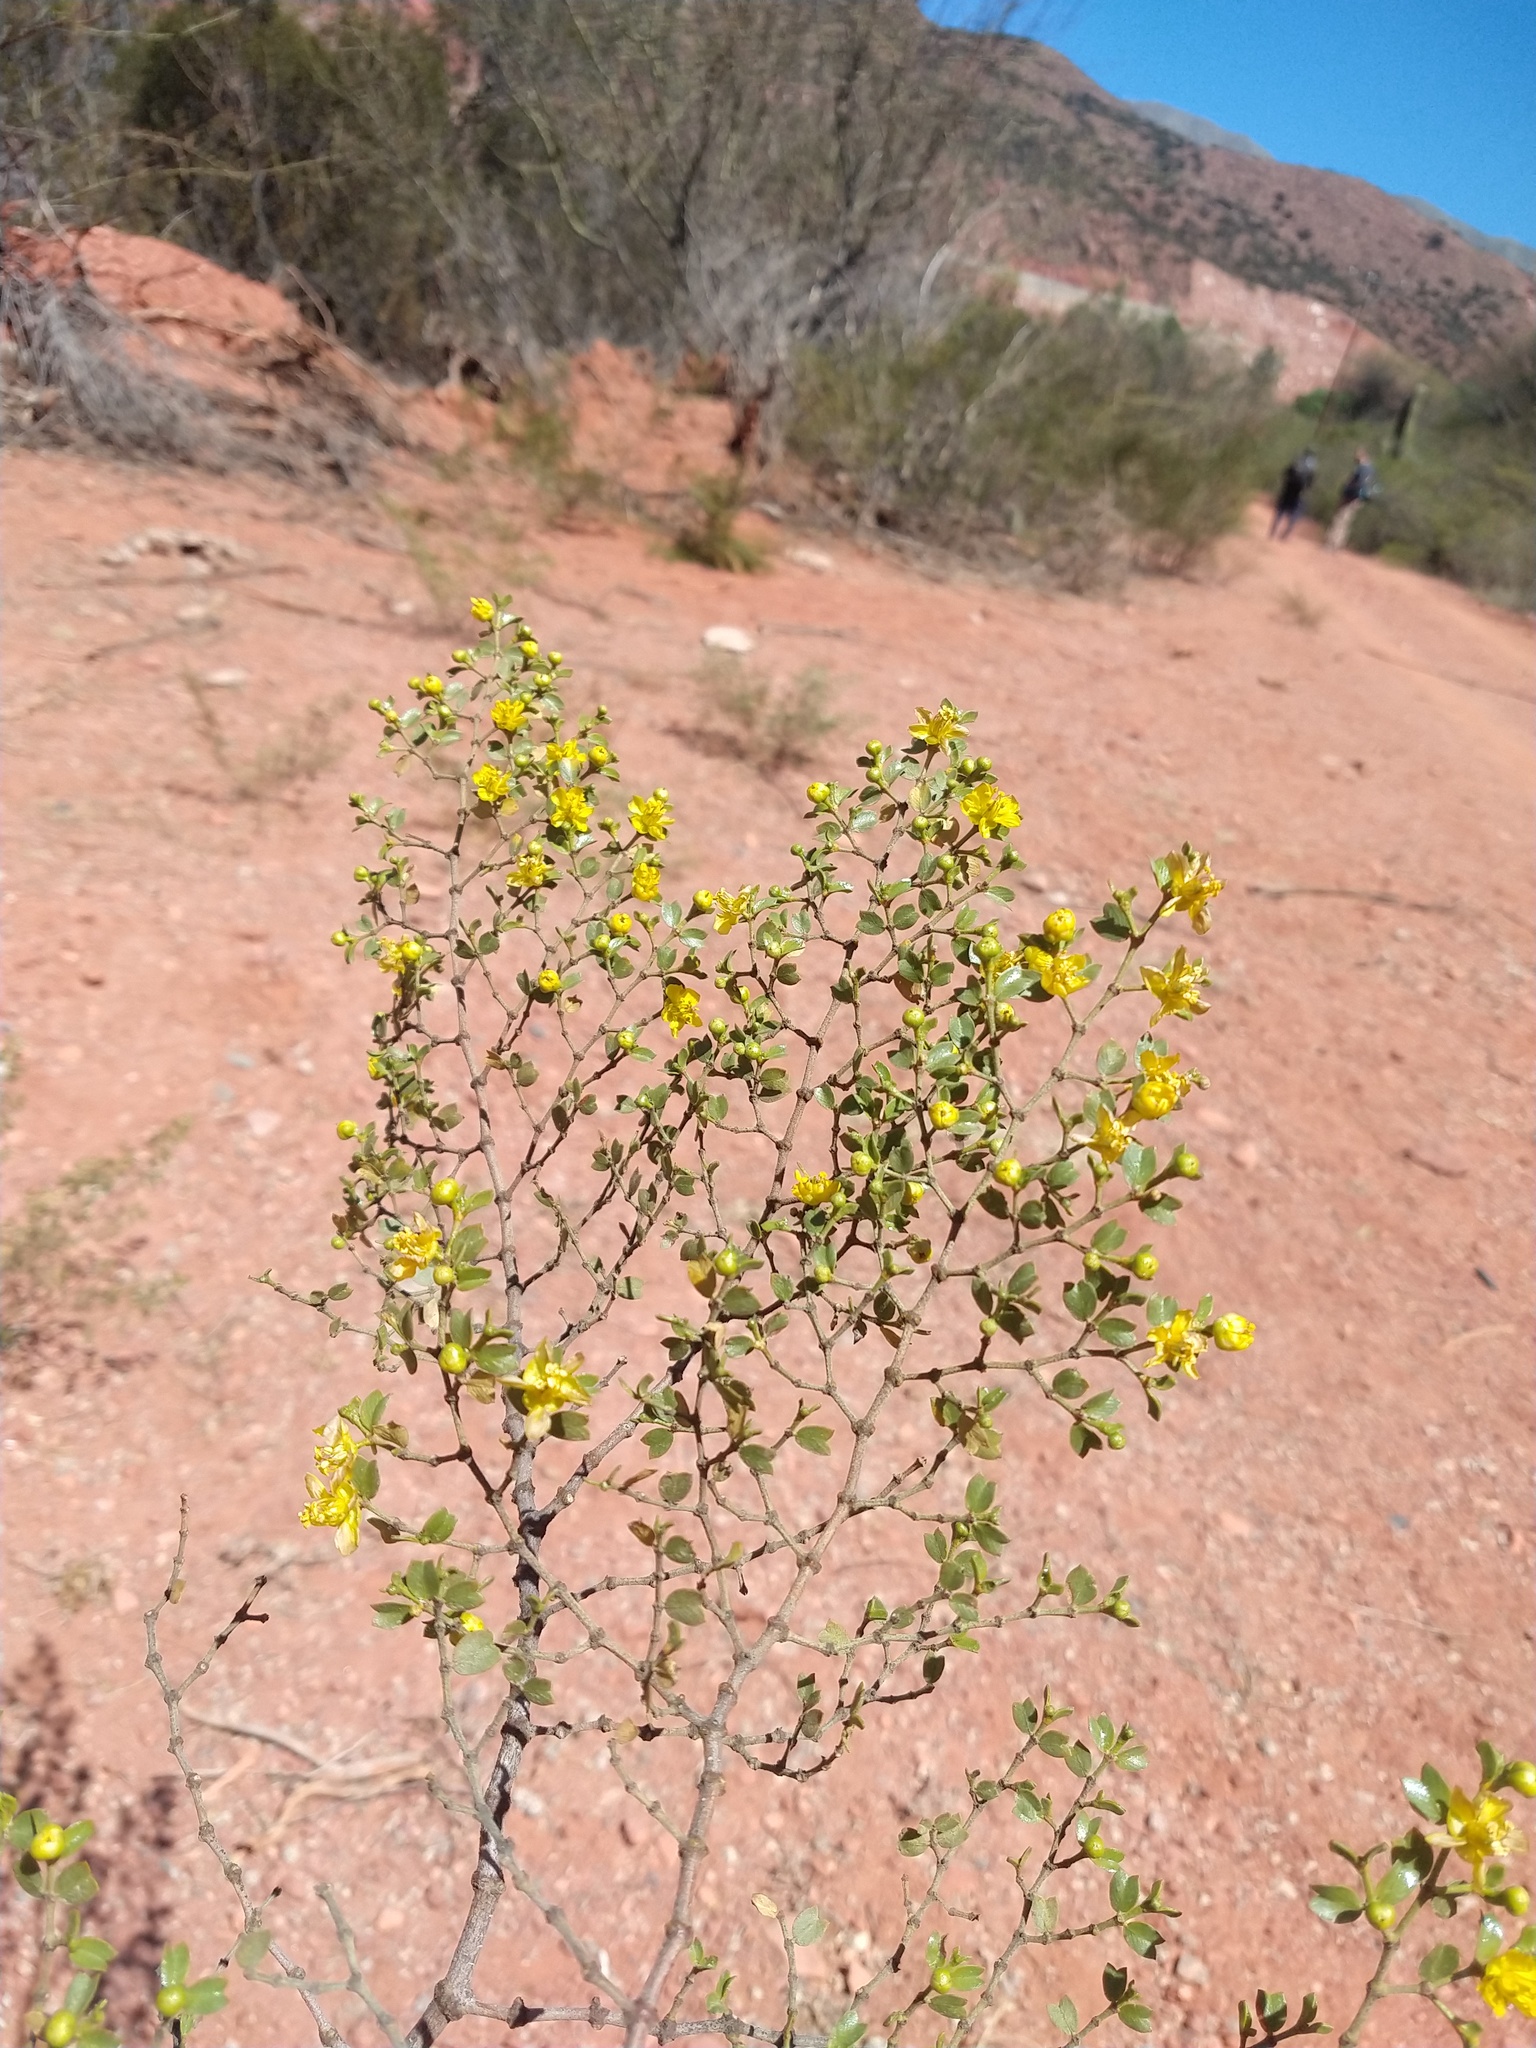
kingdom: Plantae
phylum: Tracheophyta
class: Magnoliopsida
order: Zygophyllales
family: Zygophyllaceae
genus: Larrea
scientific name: Larrea cuneifolia
